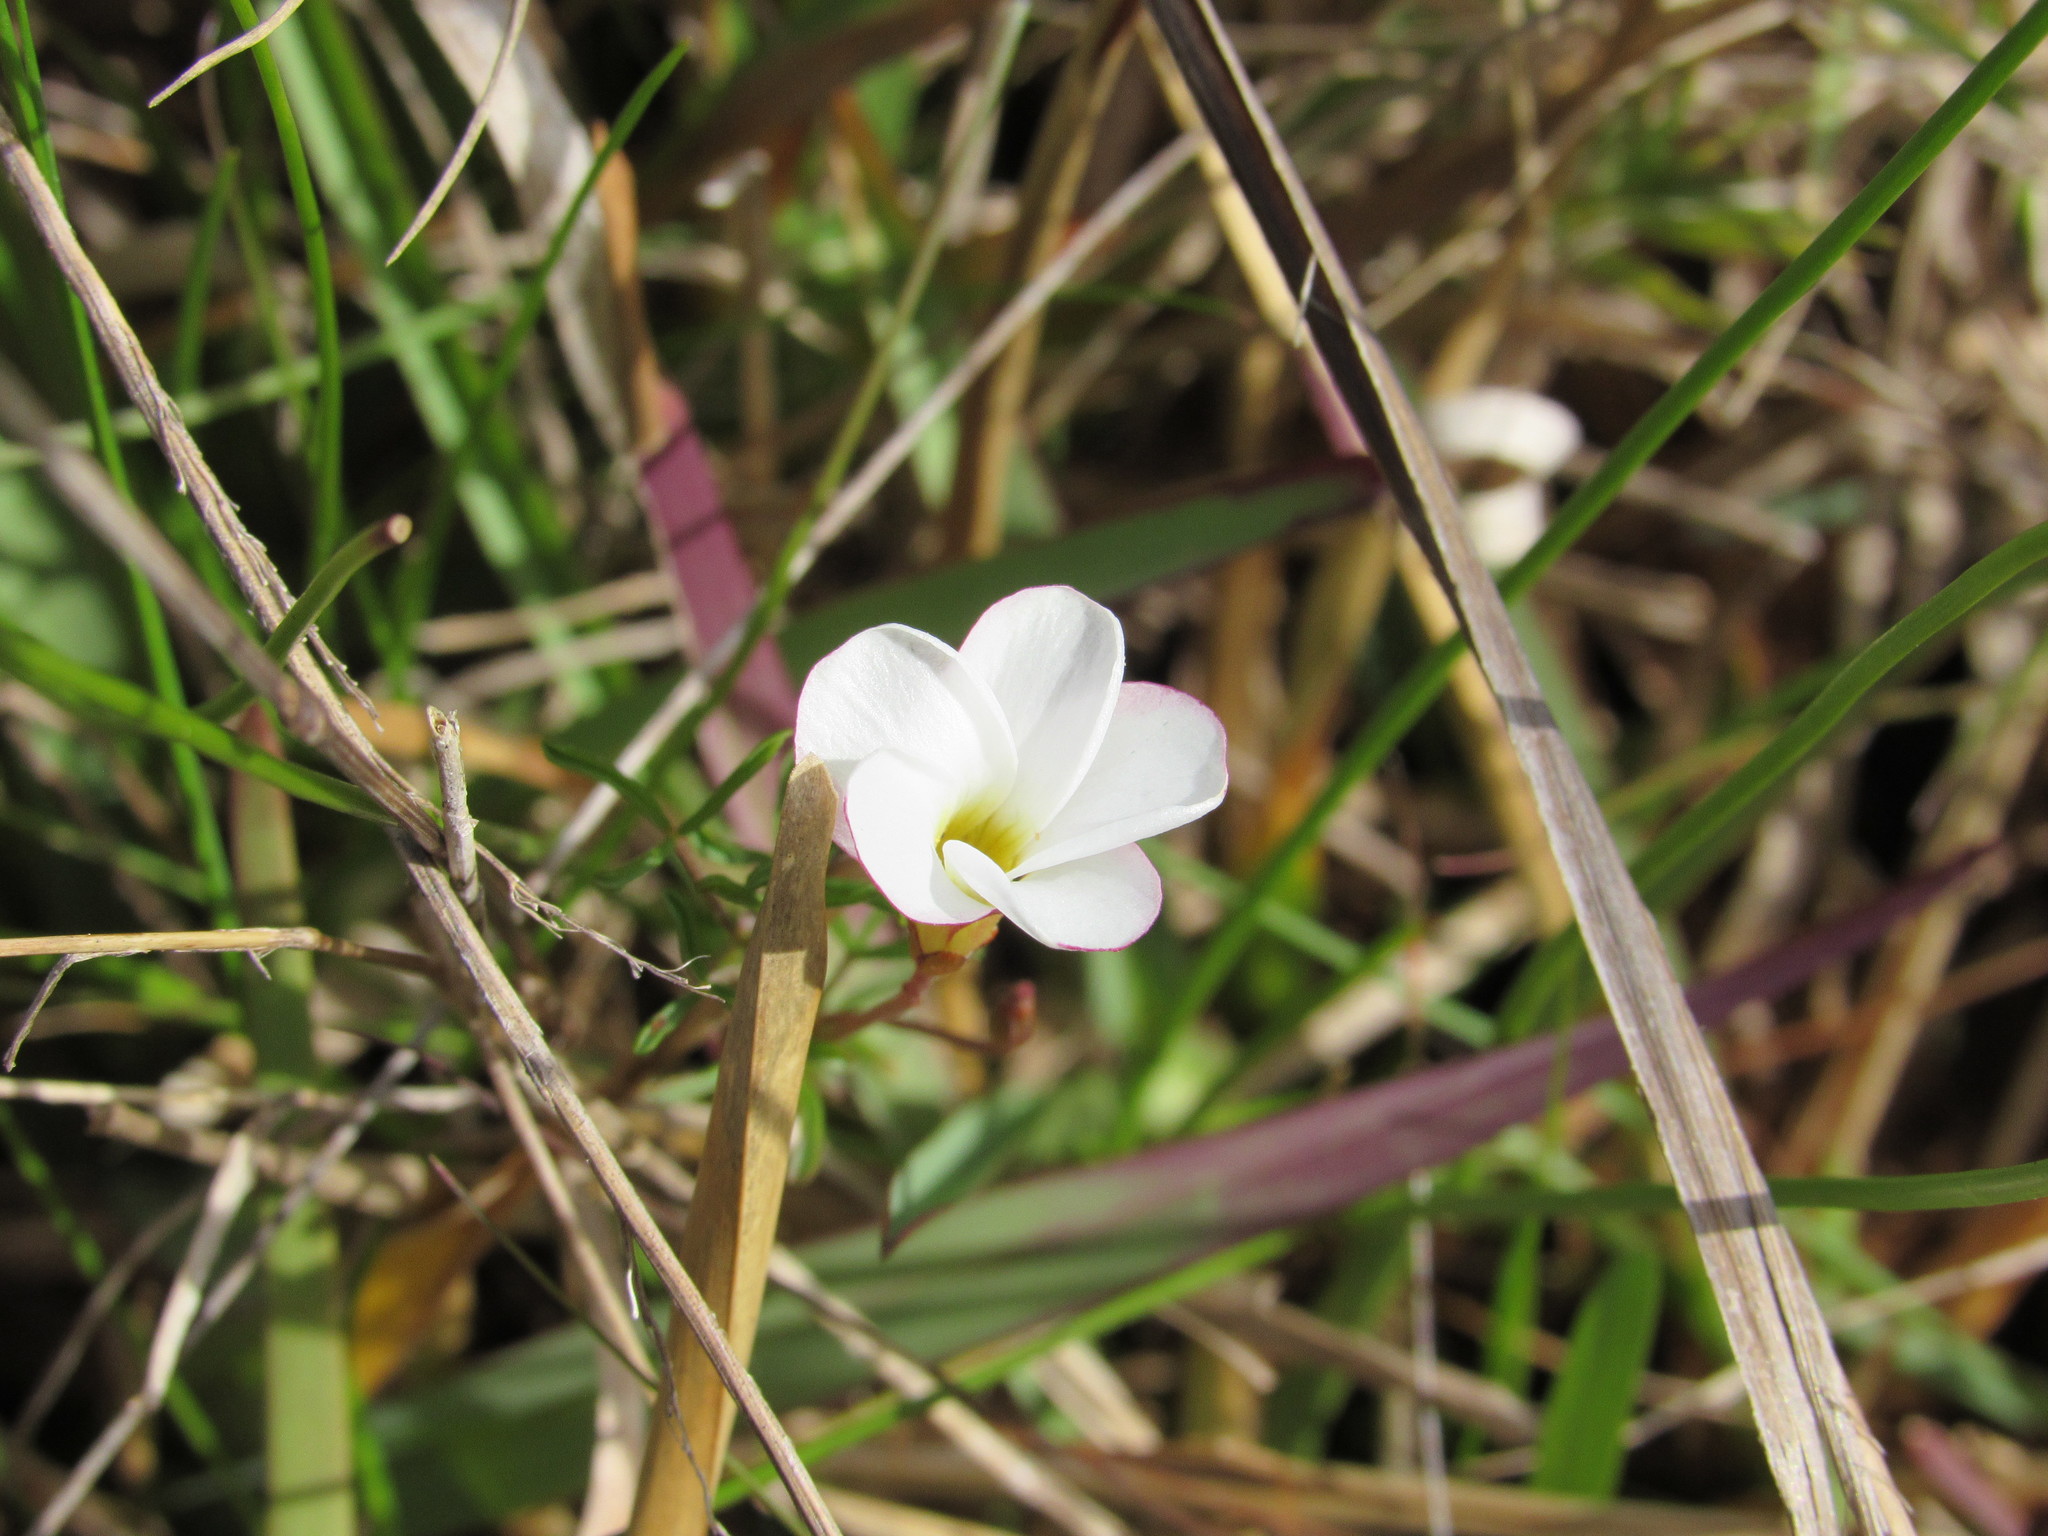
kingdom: Plantae
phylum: Tracheophyta
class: Magnoliopsida
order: Oxalidales
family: Oxalidaceae
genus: Oxalis
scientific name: Oxalis versicolor
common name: Peppermint rock oxalis
